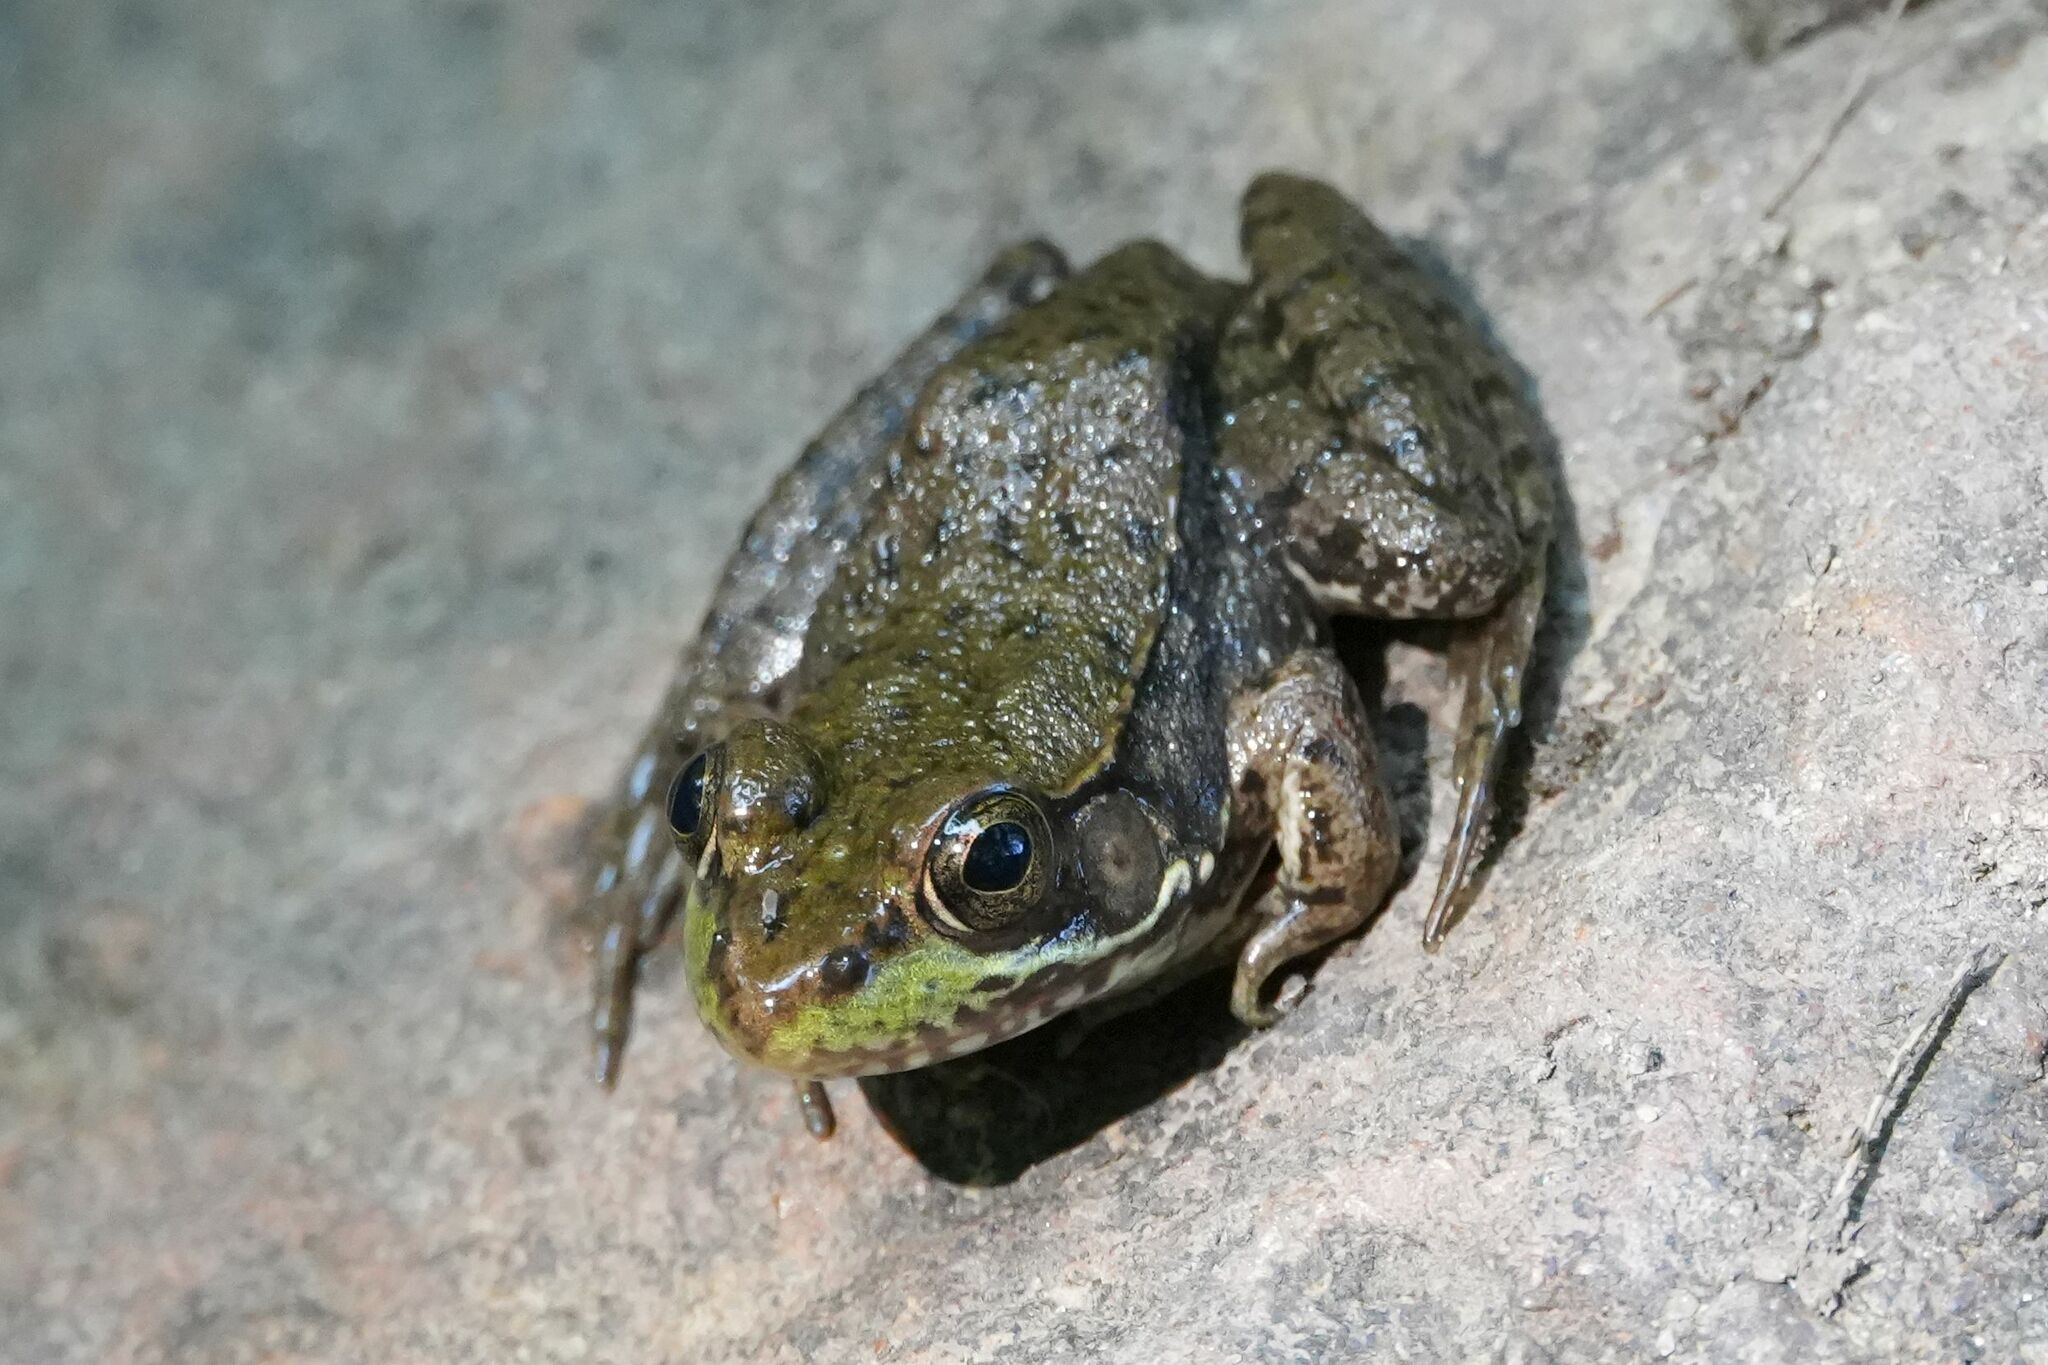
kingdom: Animalia
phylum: Chordata
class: Amphibia
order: Anura
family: Ranidae
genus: Lithobates
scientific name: Lithobates clamitans
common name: Green frog
